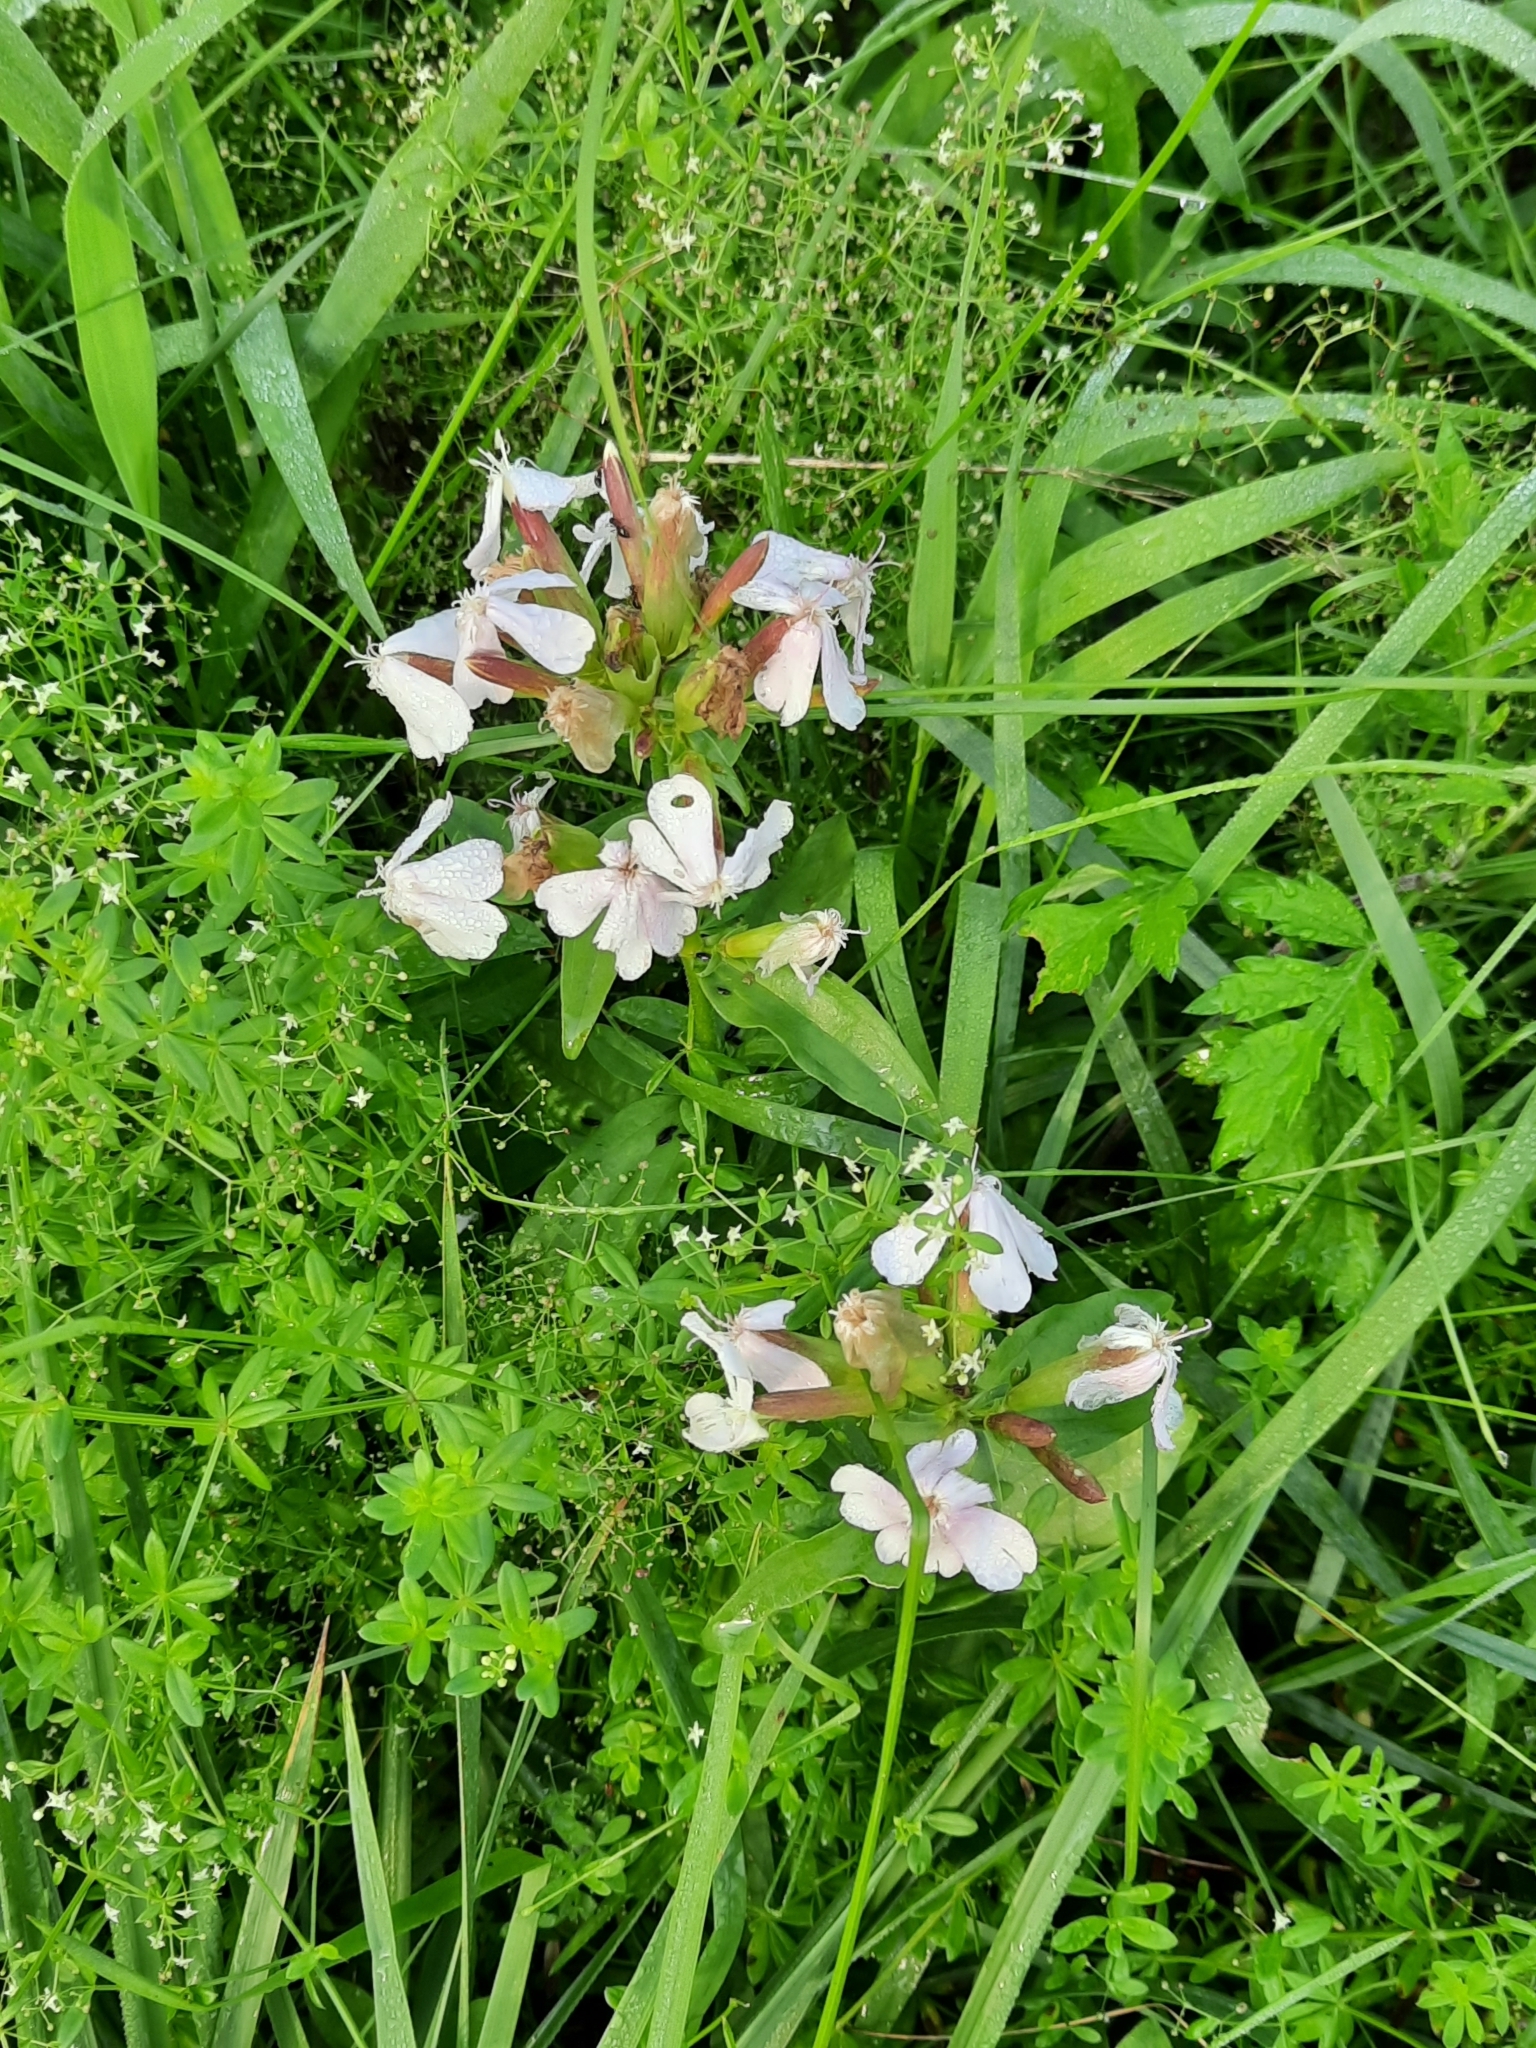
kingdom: Plantae
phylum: Tracheophyta
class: Magnoliopsida
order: Caryophyllales
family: Caryophyllaceae
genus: Saponaria
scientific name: Saponaria officinalis
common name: Soapwort
